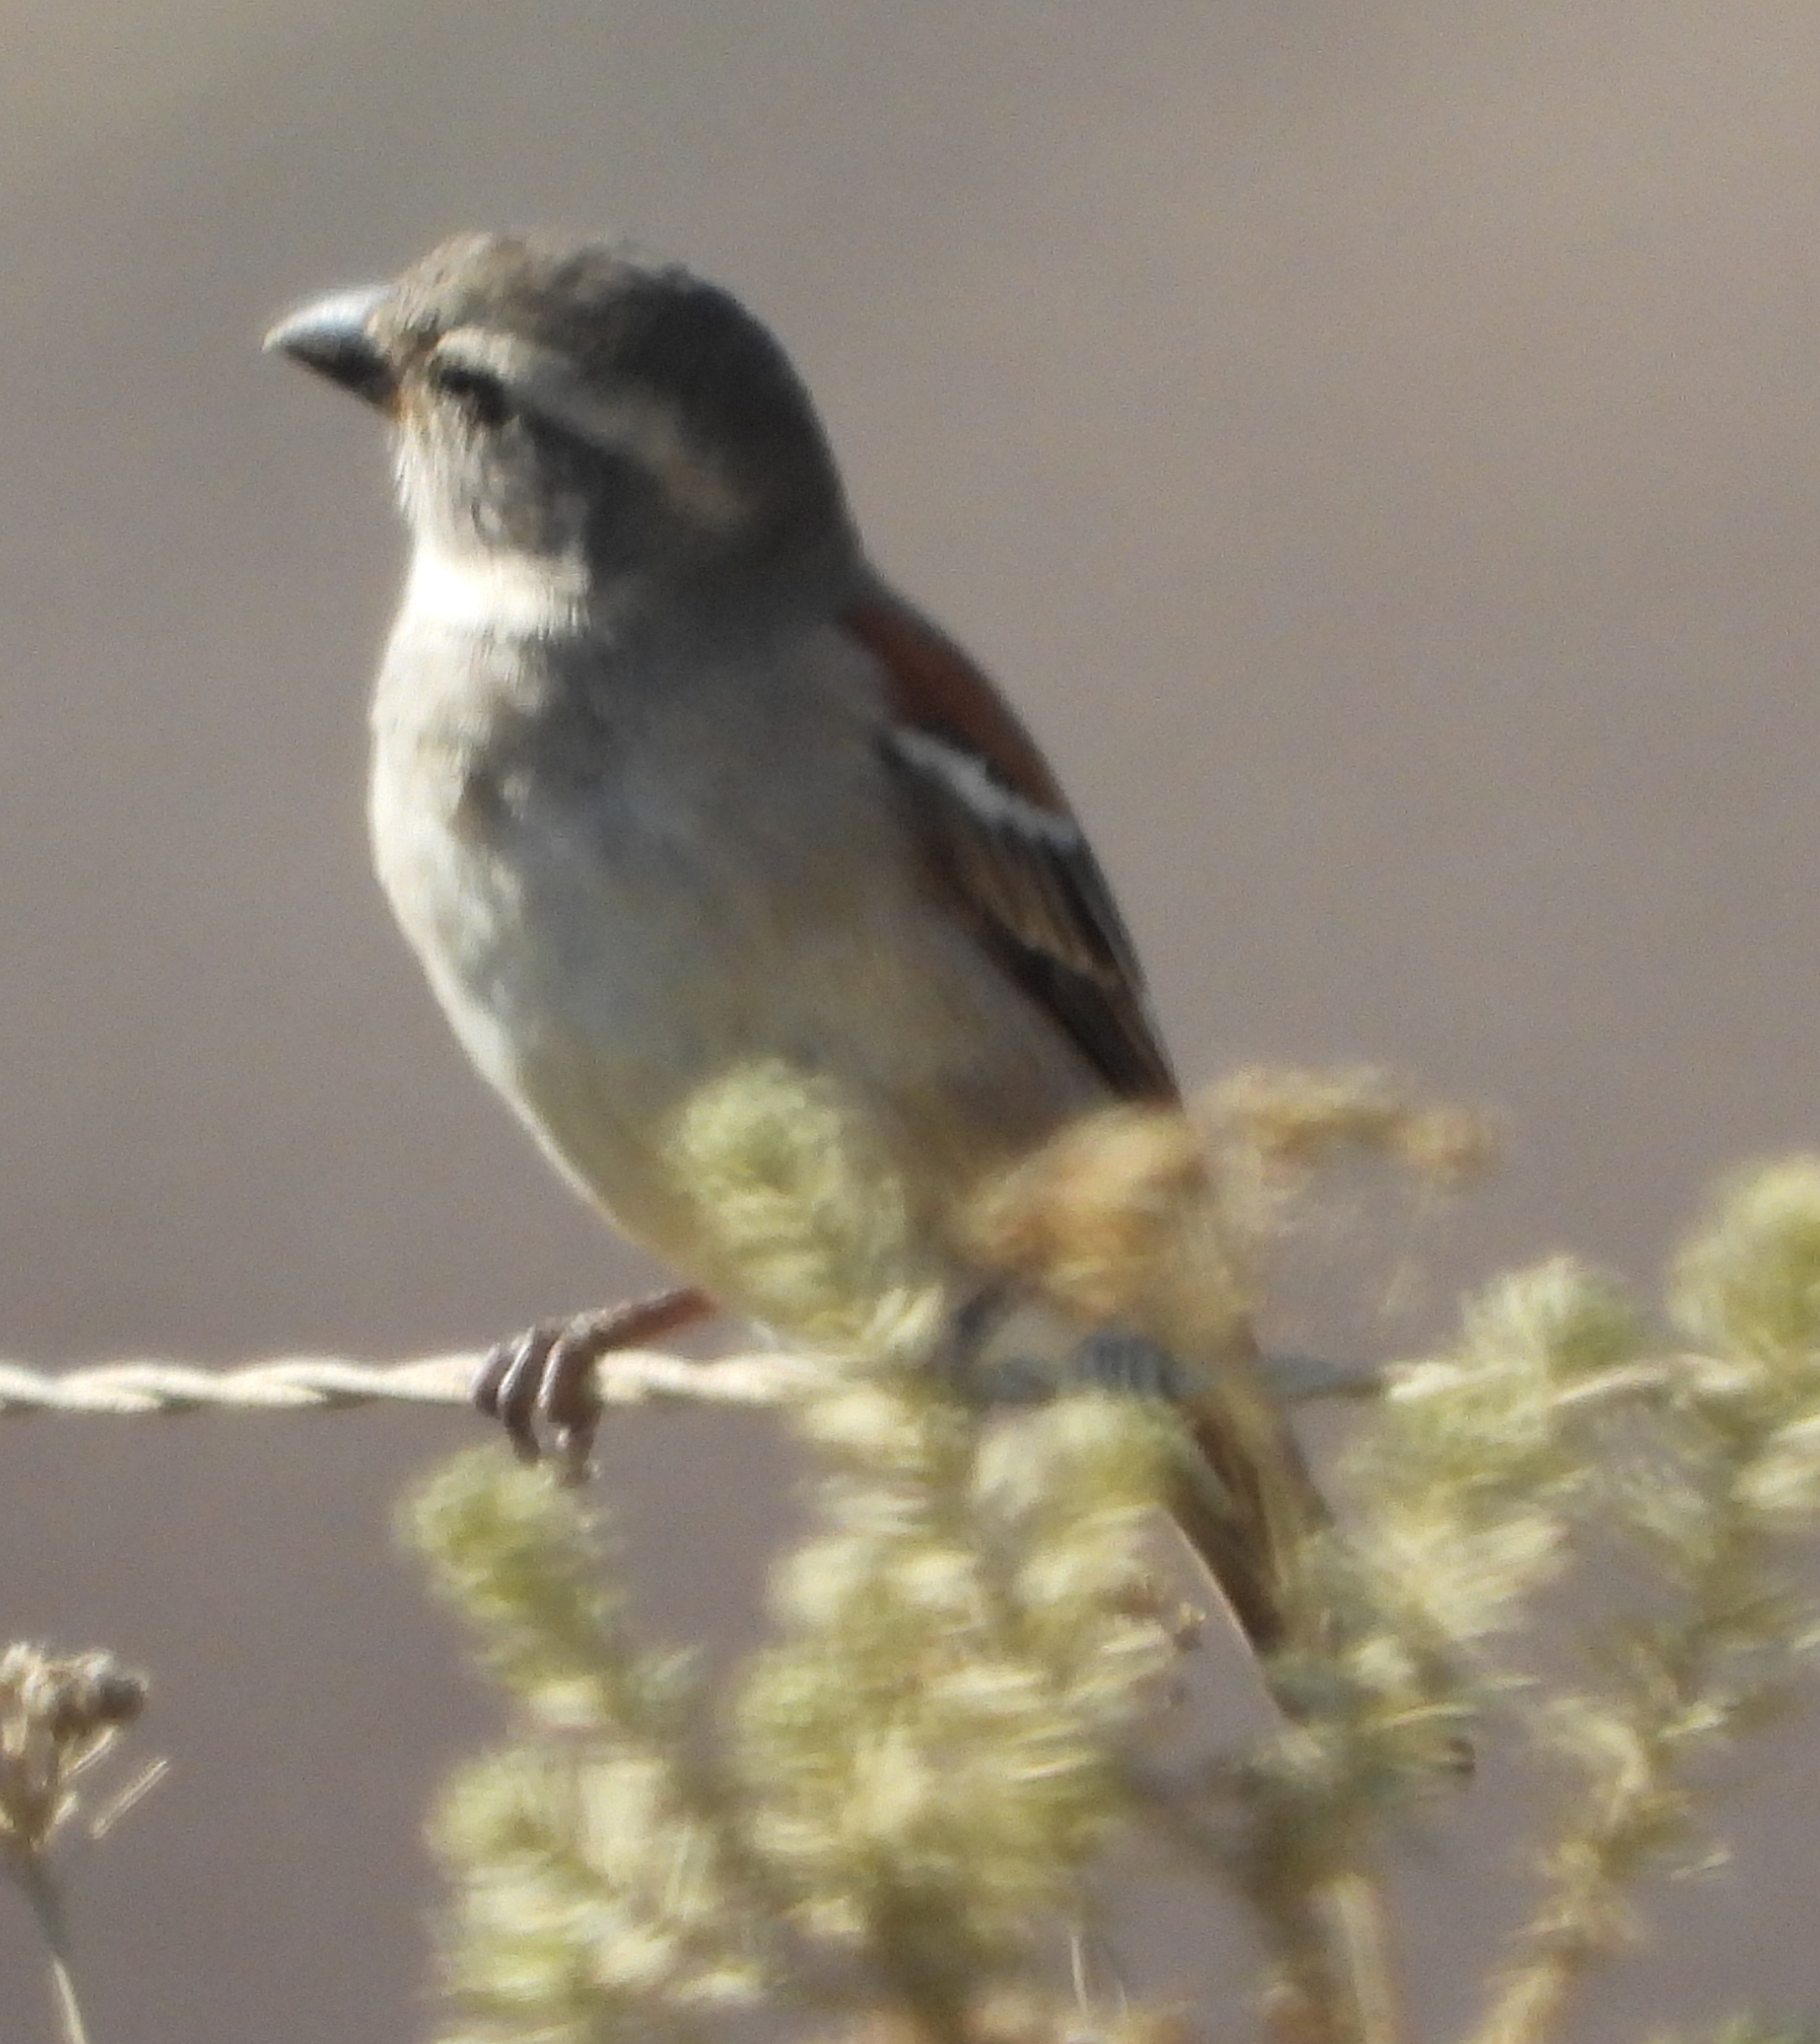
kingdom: Animalia
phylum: Chordata
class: Aves
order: Passeriformes
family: Passeridae
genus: Passer
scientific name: Passer melanurus
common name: Cape sparrow
